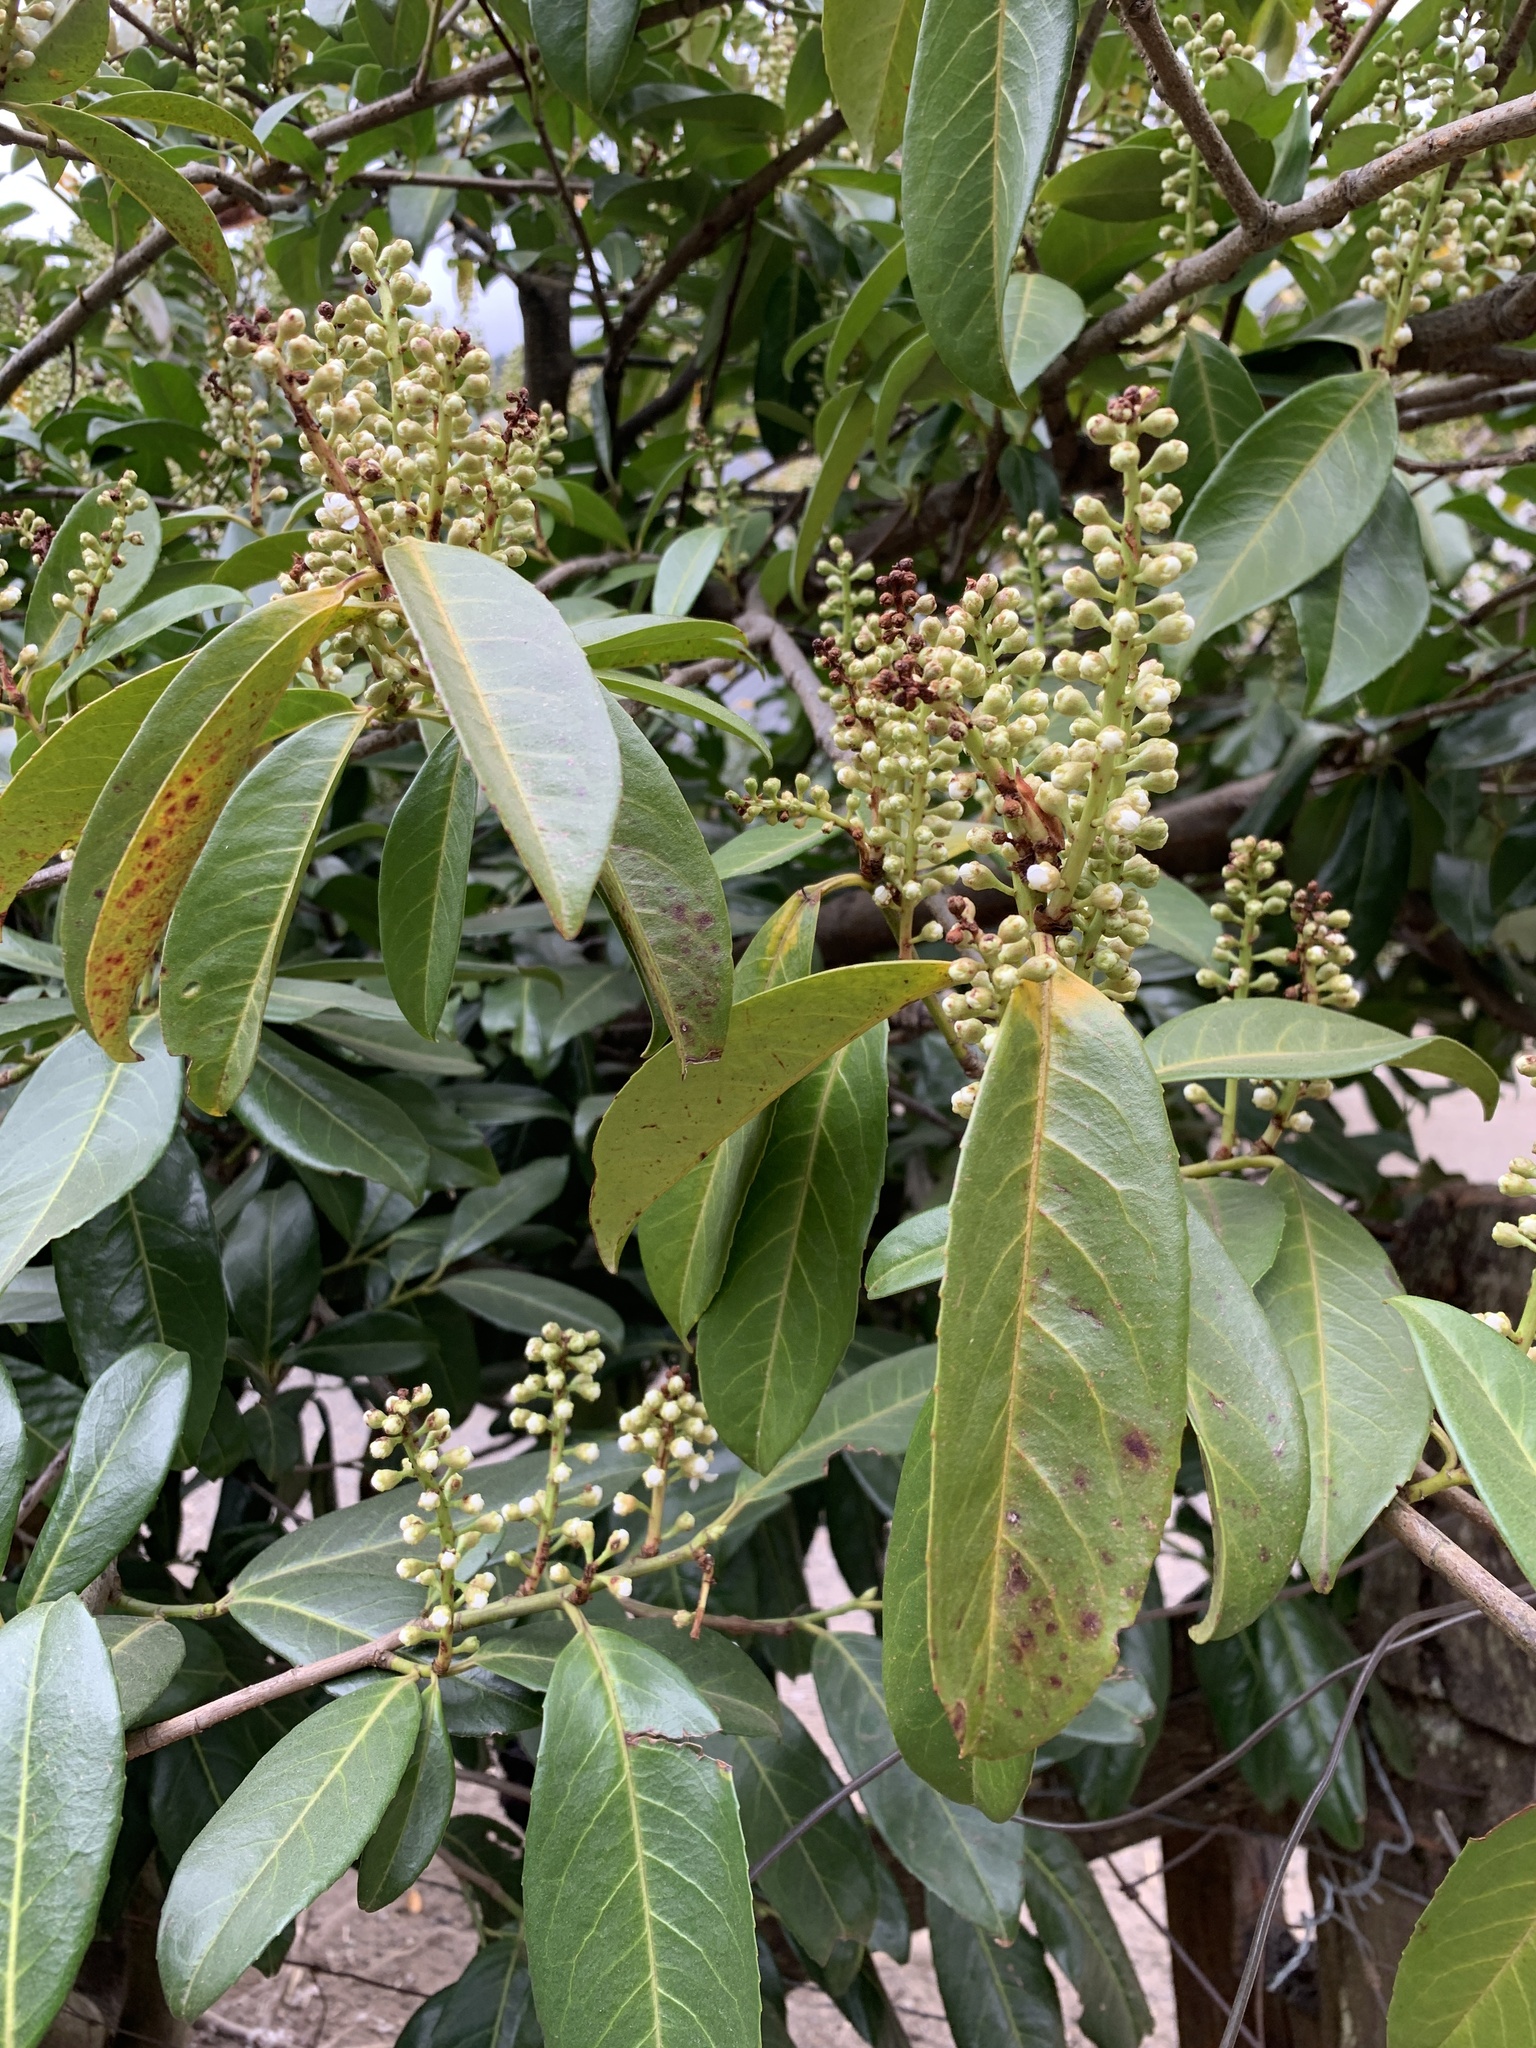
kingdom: Plantae
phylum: Tracheophyta
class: Magnoliopsida
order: Rosales
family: Rosaceae
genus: Prunus
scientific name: Prunus laurocerasus
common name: Cherry laurel
